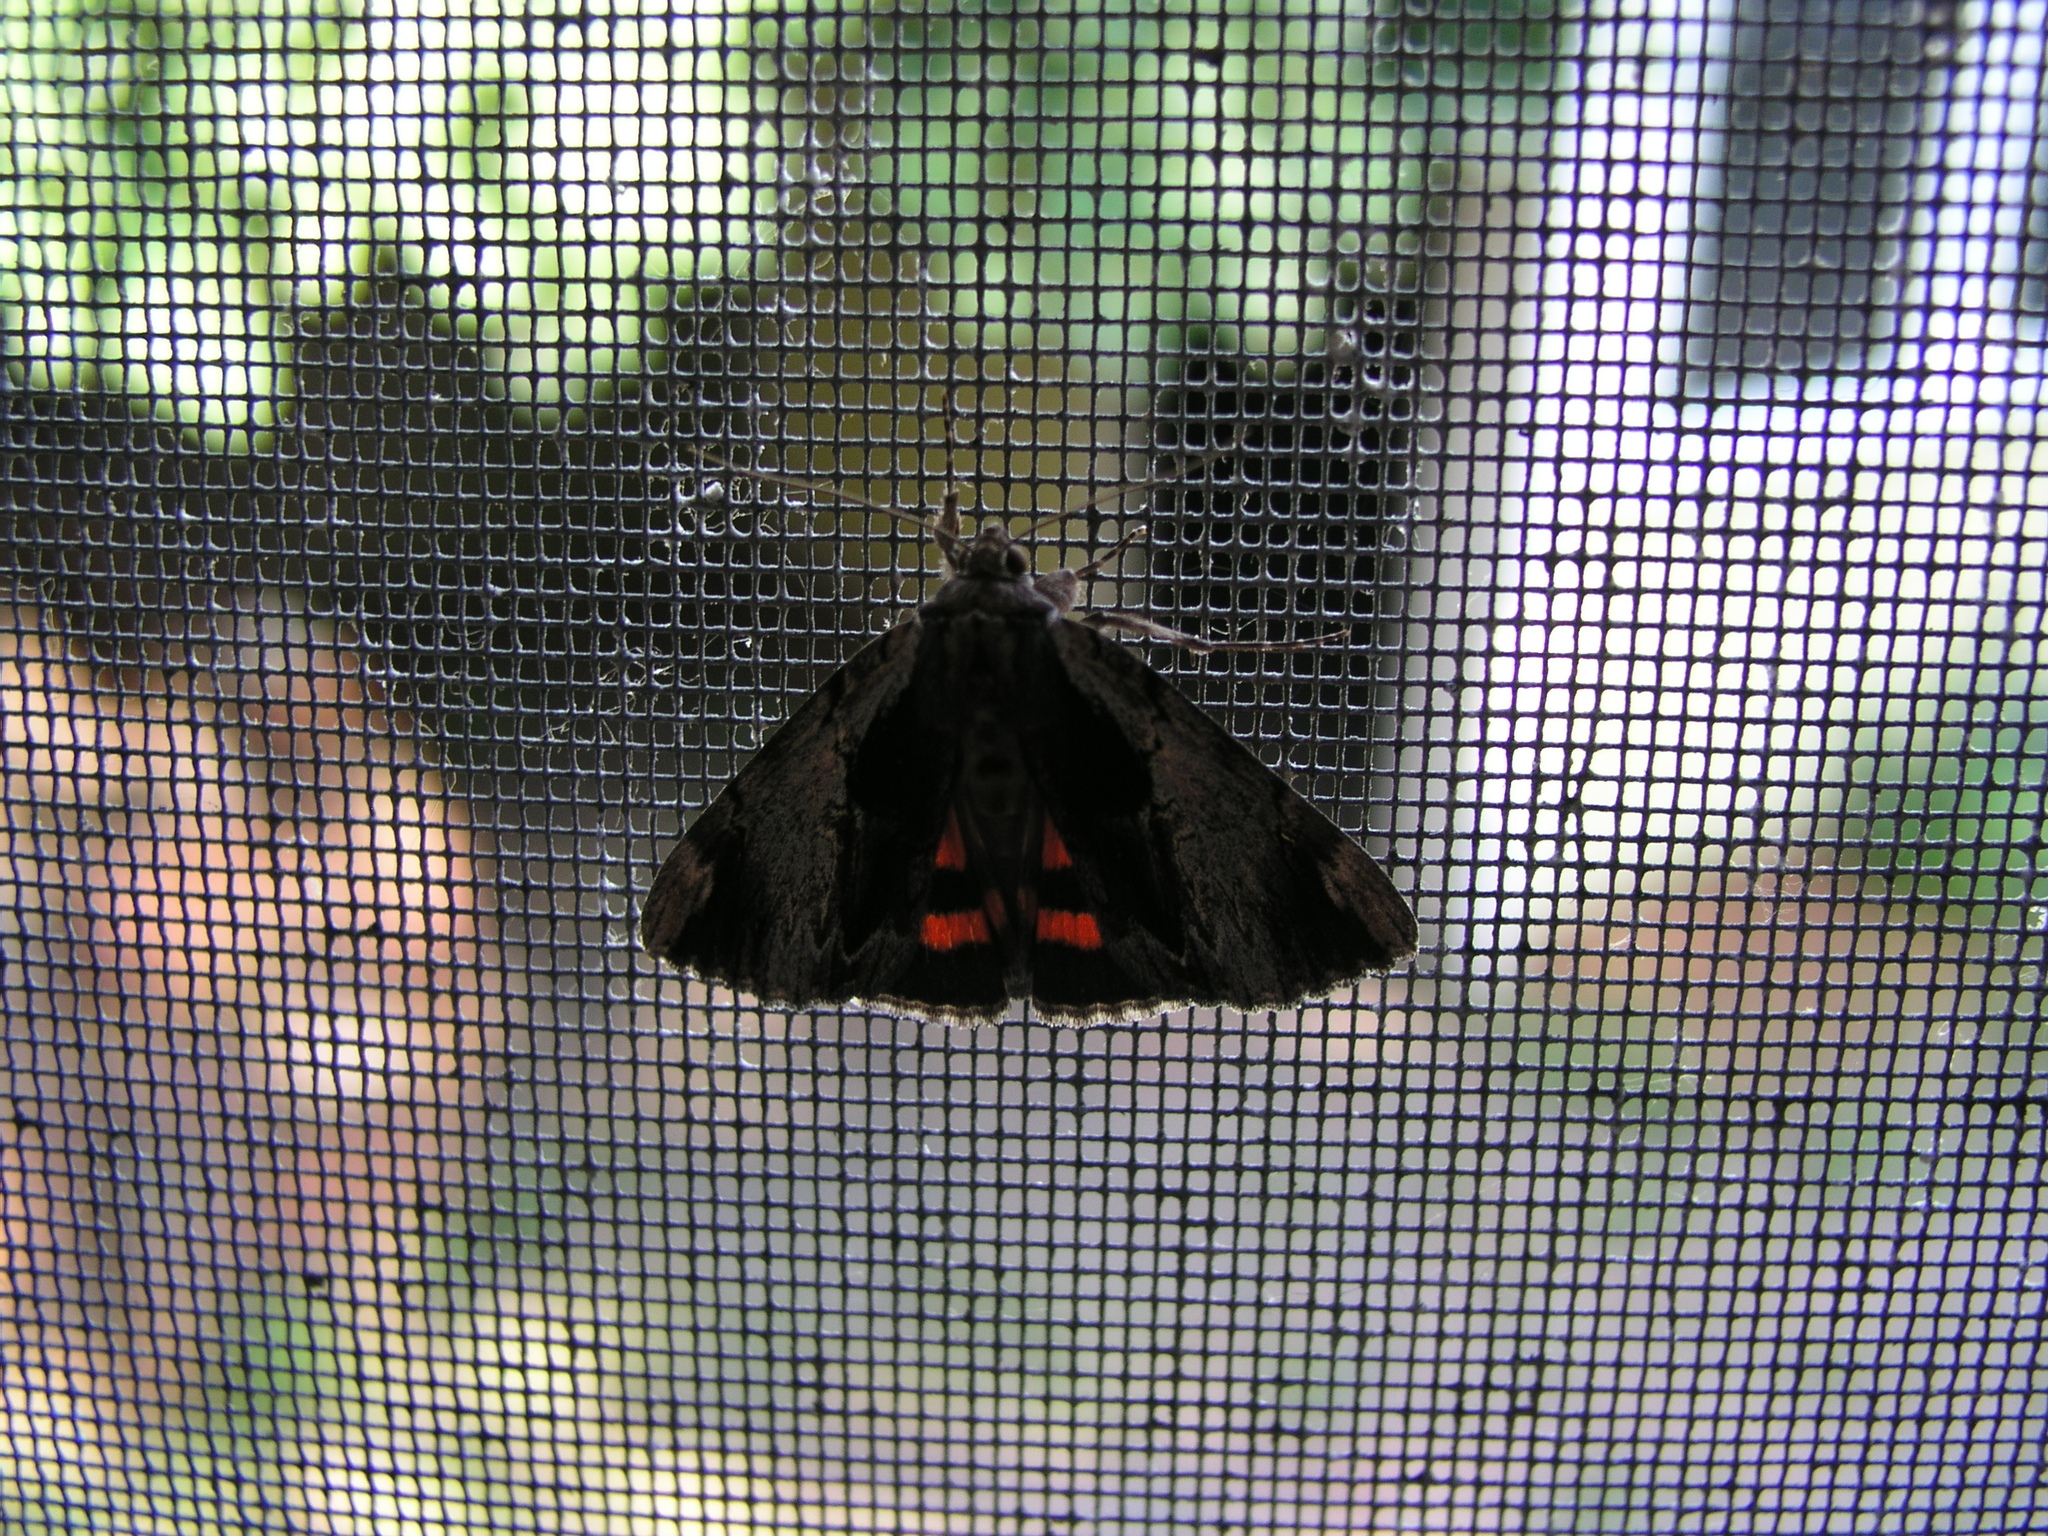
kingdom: Animalia
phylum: Arthropoda
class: Insecta
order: Lepidoptera
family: Erebidae
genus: Catocala
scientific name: Catocala ultronia
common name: Ultronia underwing
